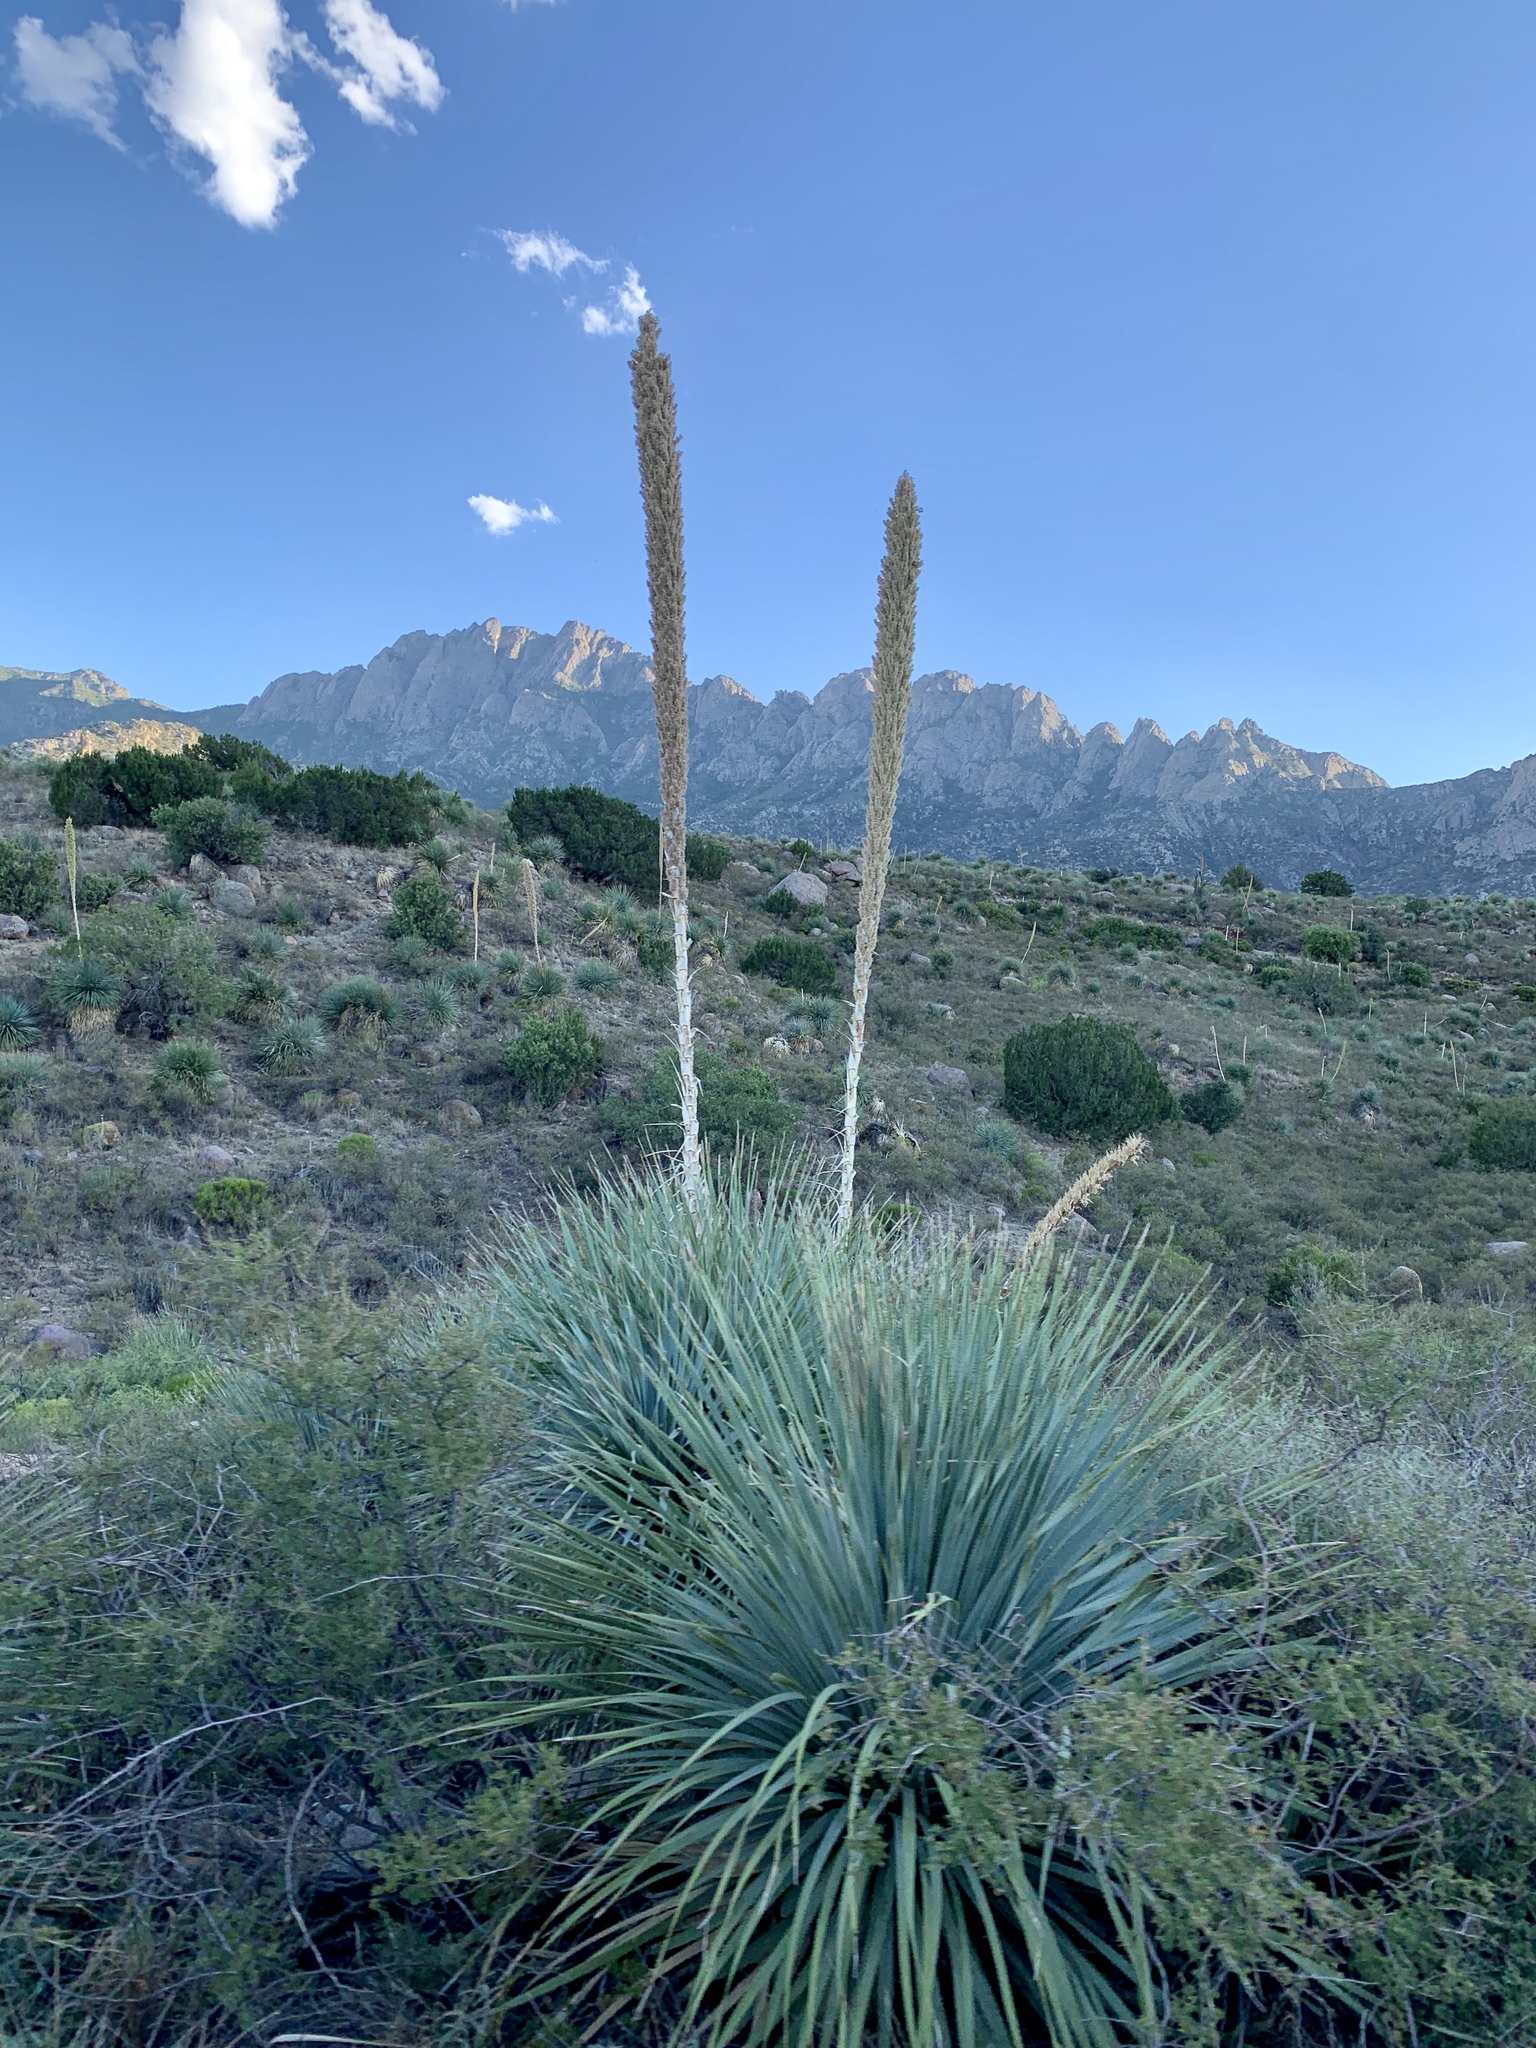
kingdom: Plantae
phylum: Tracheophyta
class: Liliopsida
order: Asparagales
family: Asparagaceae
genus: Dasylirion
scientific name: Dasylirion wheeleri
